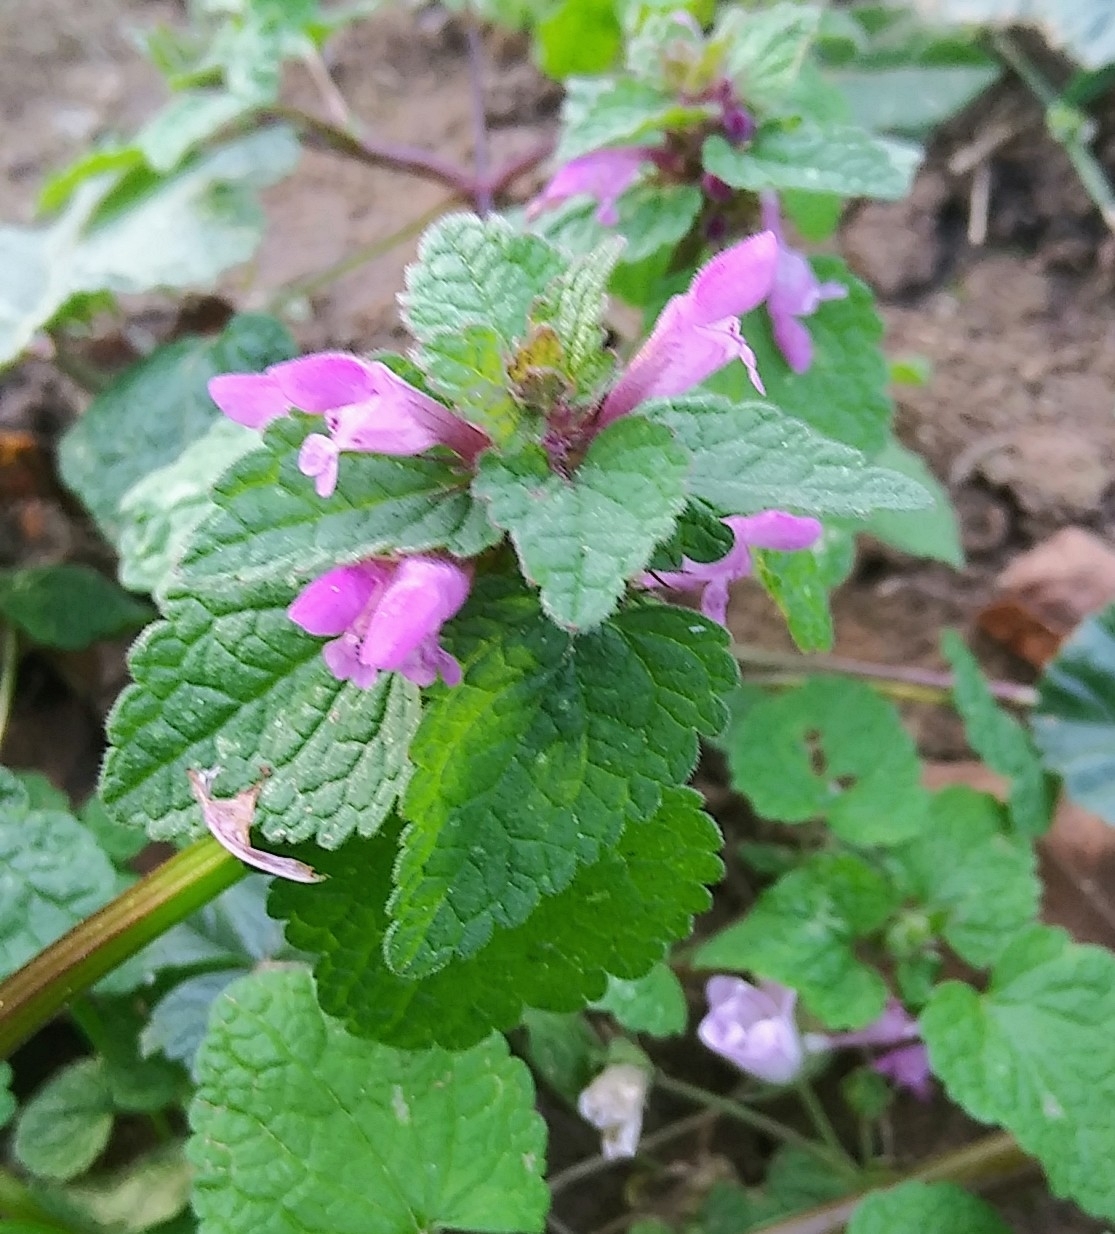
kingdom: Plantae
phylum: Tracheophyta
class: Magnoliopsida
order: Lamiales
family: Lamiaceae
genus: Lamium
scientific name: Lamium purpureum
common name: Red dead-nettle
